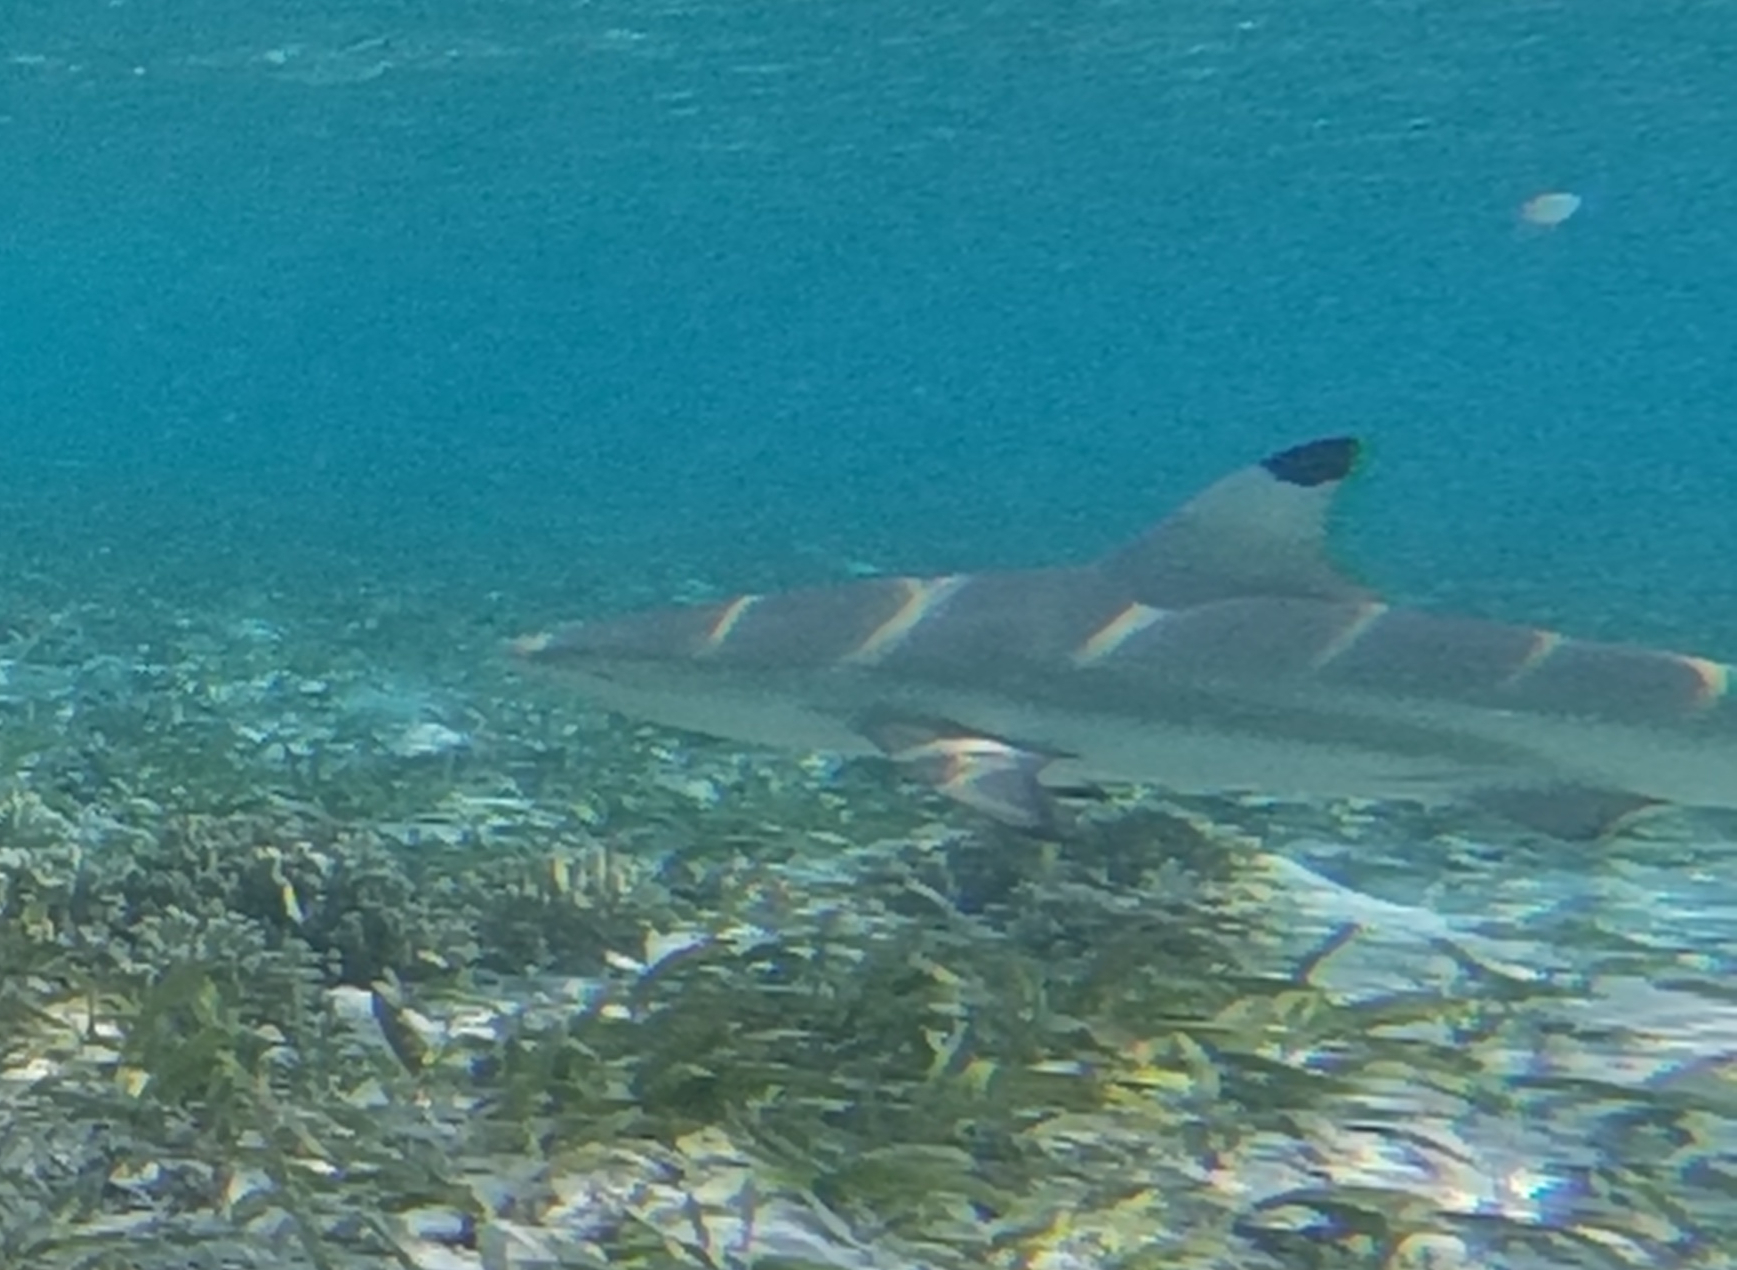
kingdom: Animalia
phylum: Chordata
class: Elasmobranchii
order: Carcharhiniformes
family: Carcharhinidae
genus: Carcharhinus
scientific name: Carcharhinus melanopterus
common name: Blacktip reef shark
